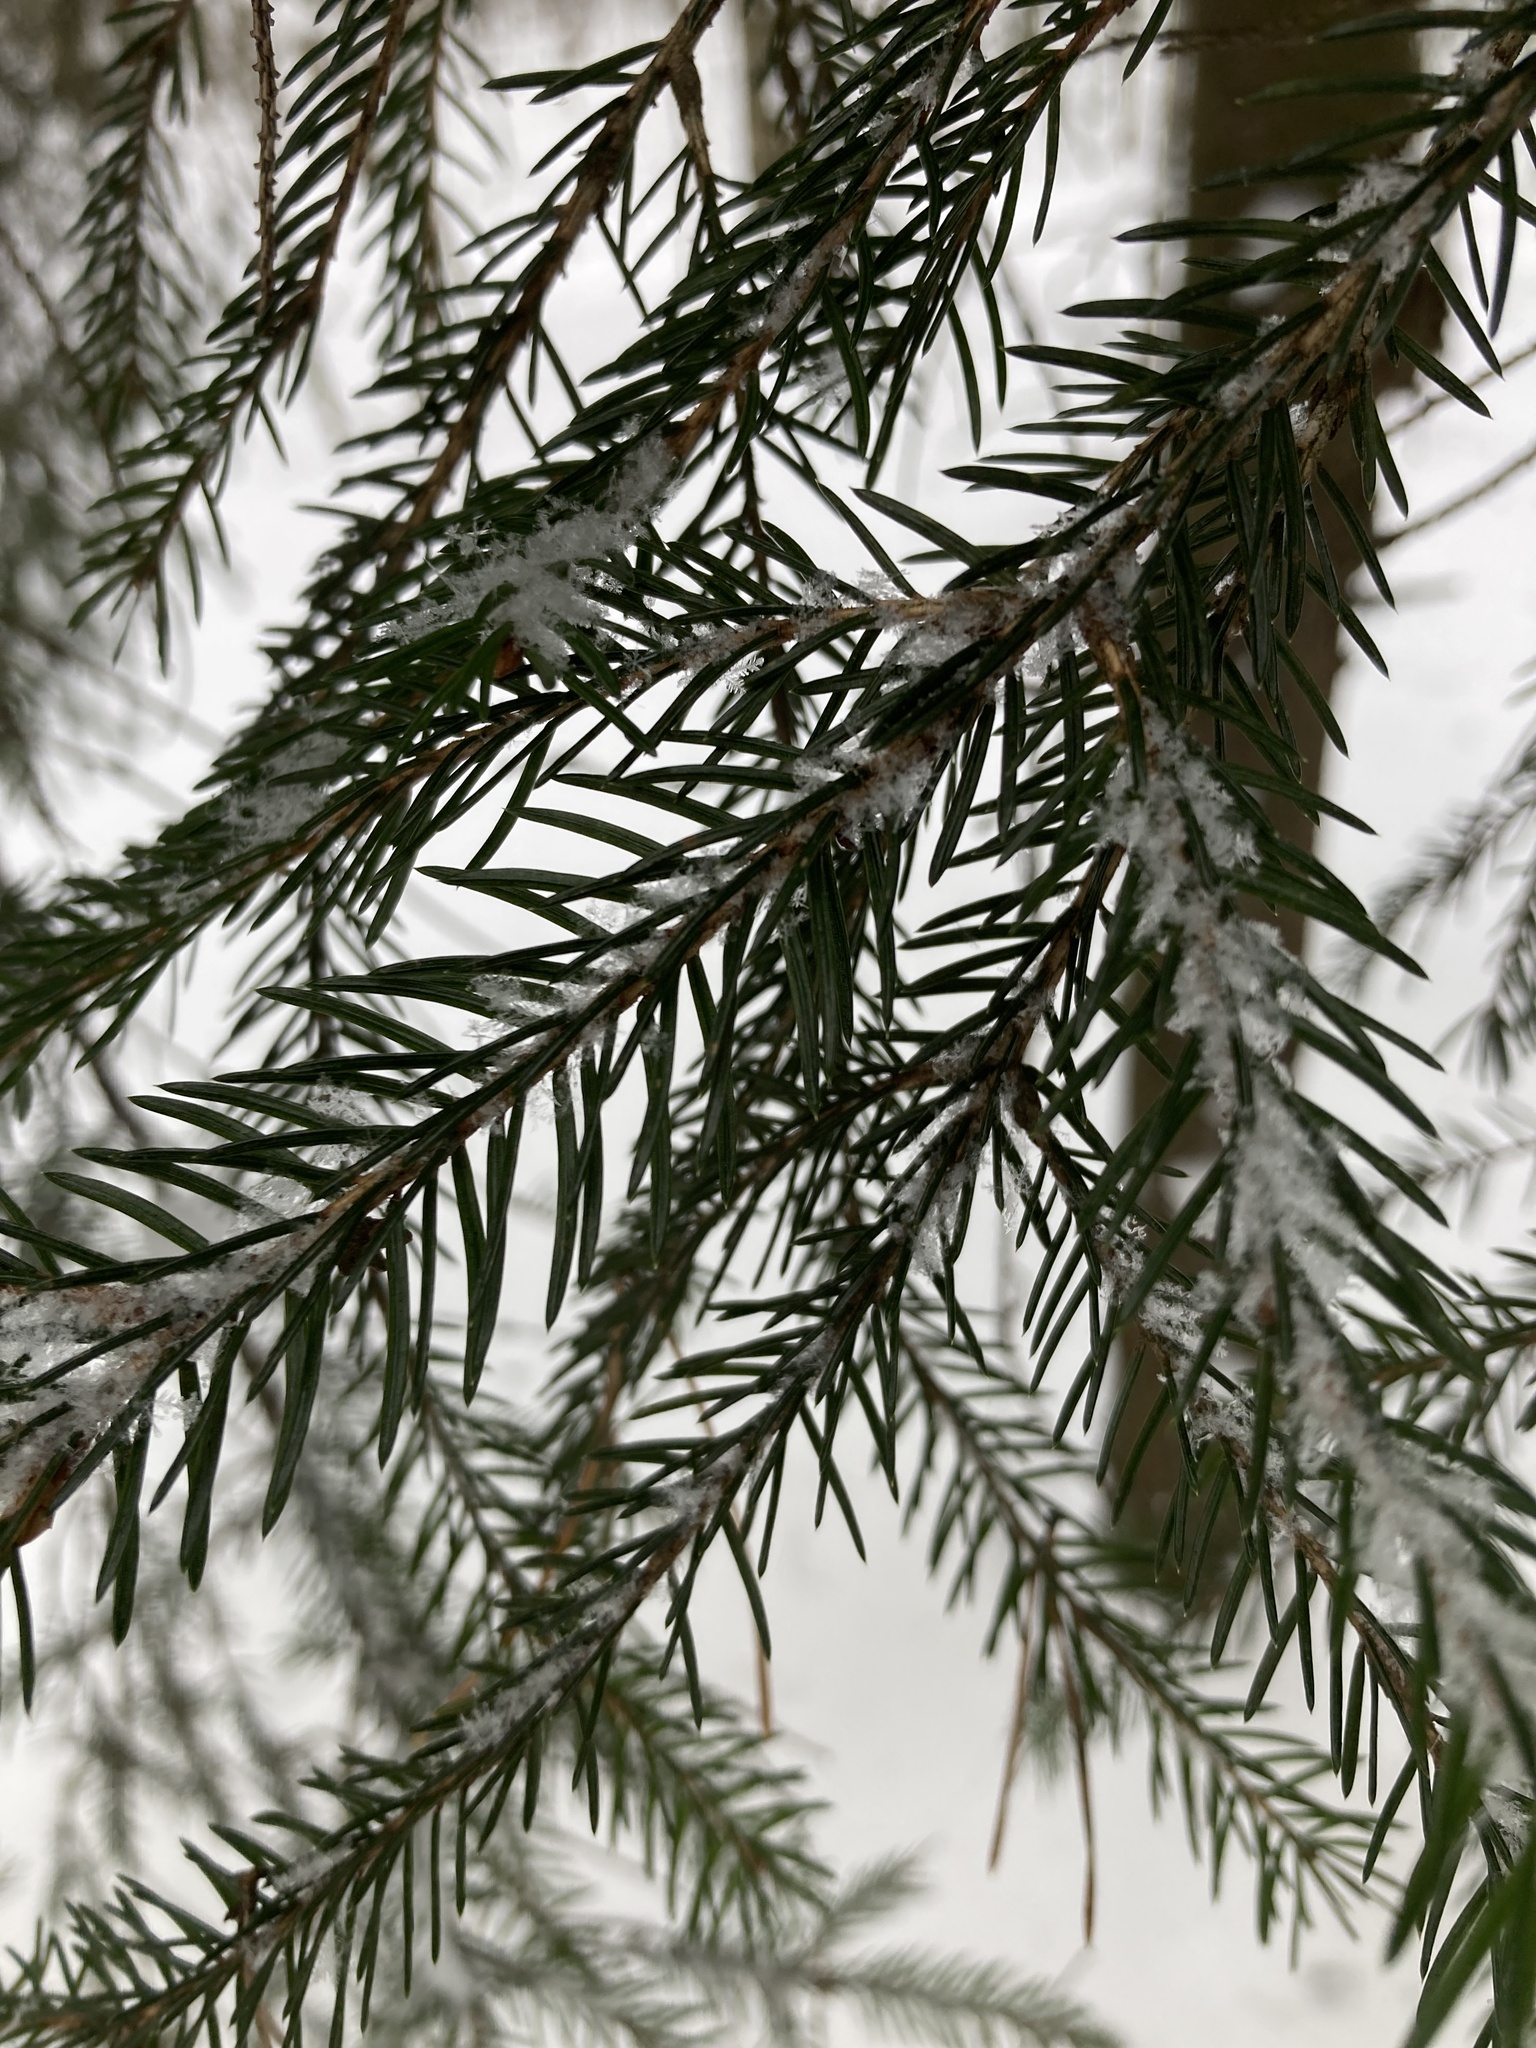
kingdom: Plantae
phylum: Tracheophyta
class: Pinopsida
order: Pinales
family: Pinaceae
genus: Picea
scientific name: Picea abies
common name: Norway spruce
